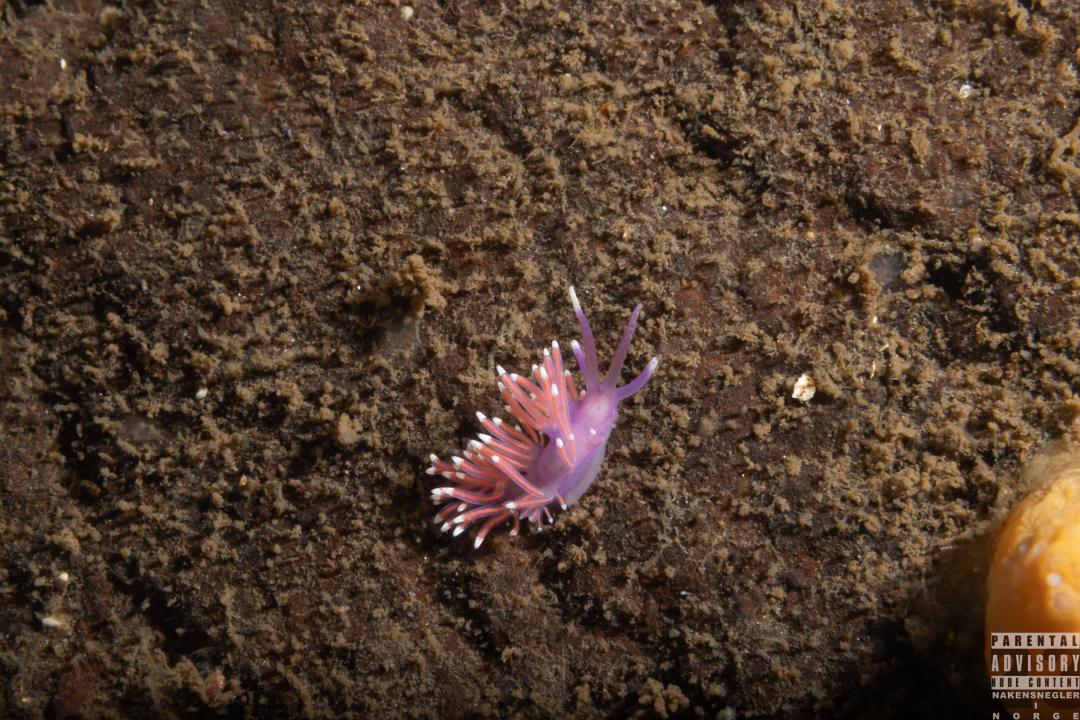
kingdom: Animalia
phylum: Mollusca
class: Gastropoda
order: Nudibranchia
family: Flabellinidae
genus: Edmundsella
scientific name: Edmundsella pedata
